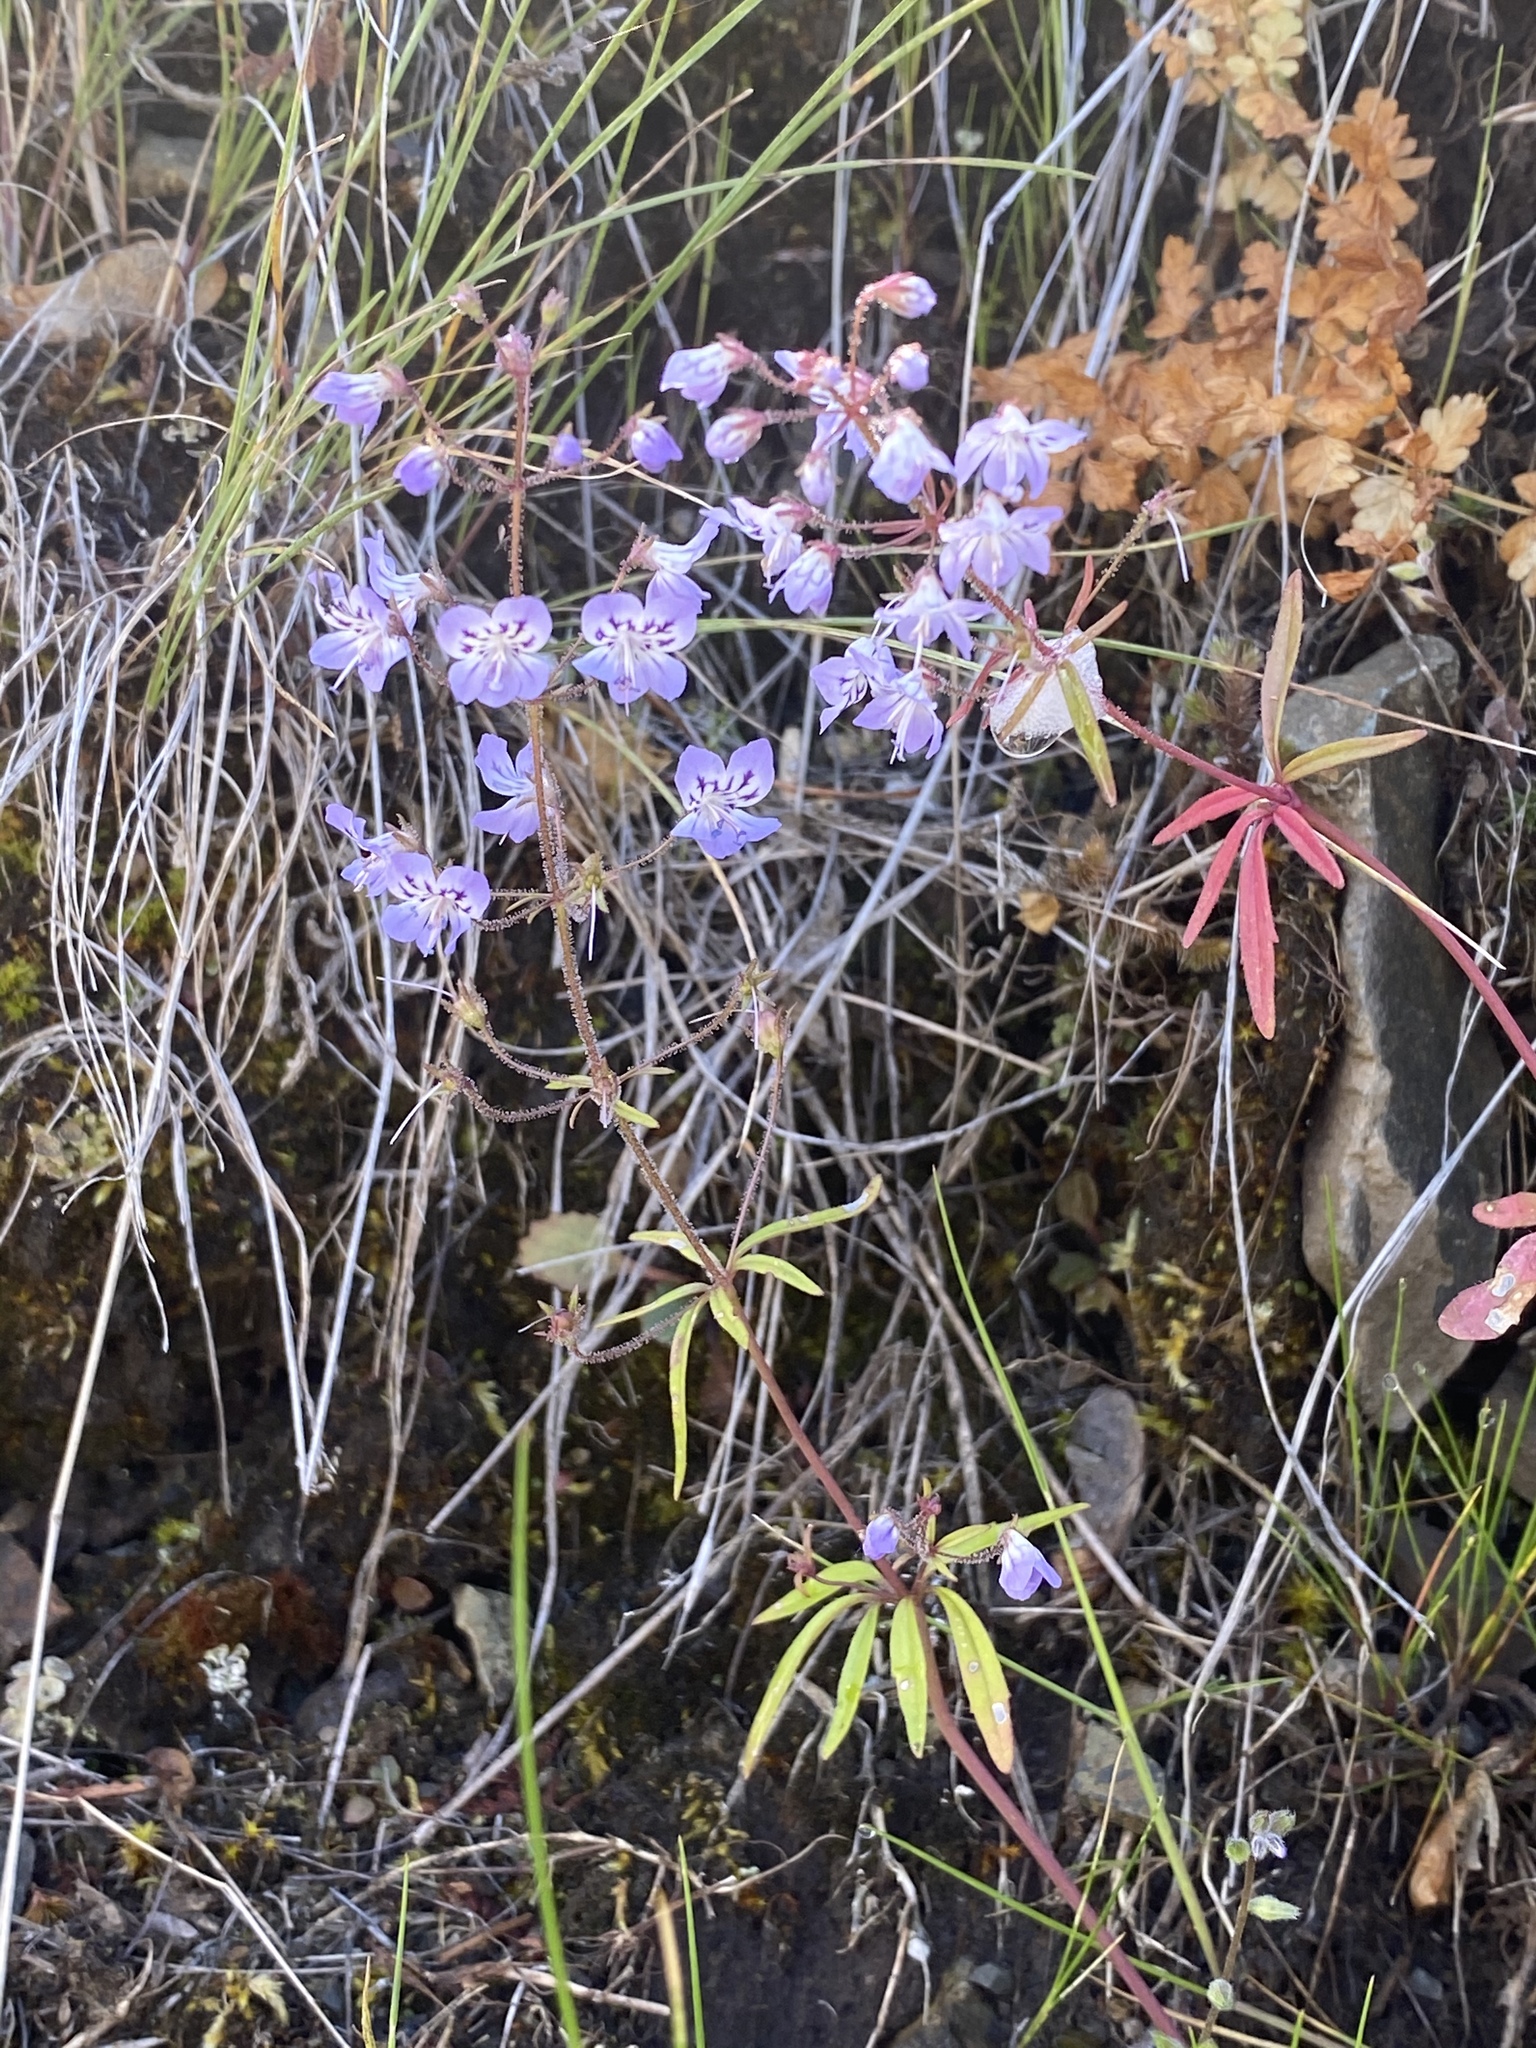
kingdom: Plantae
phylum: Tracheophyta
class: Magnoliopsida
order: Lamiales
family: Plantaginaceae
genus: Tonella
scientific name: Tonella floribunda
